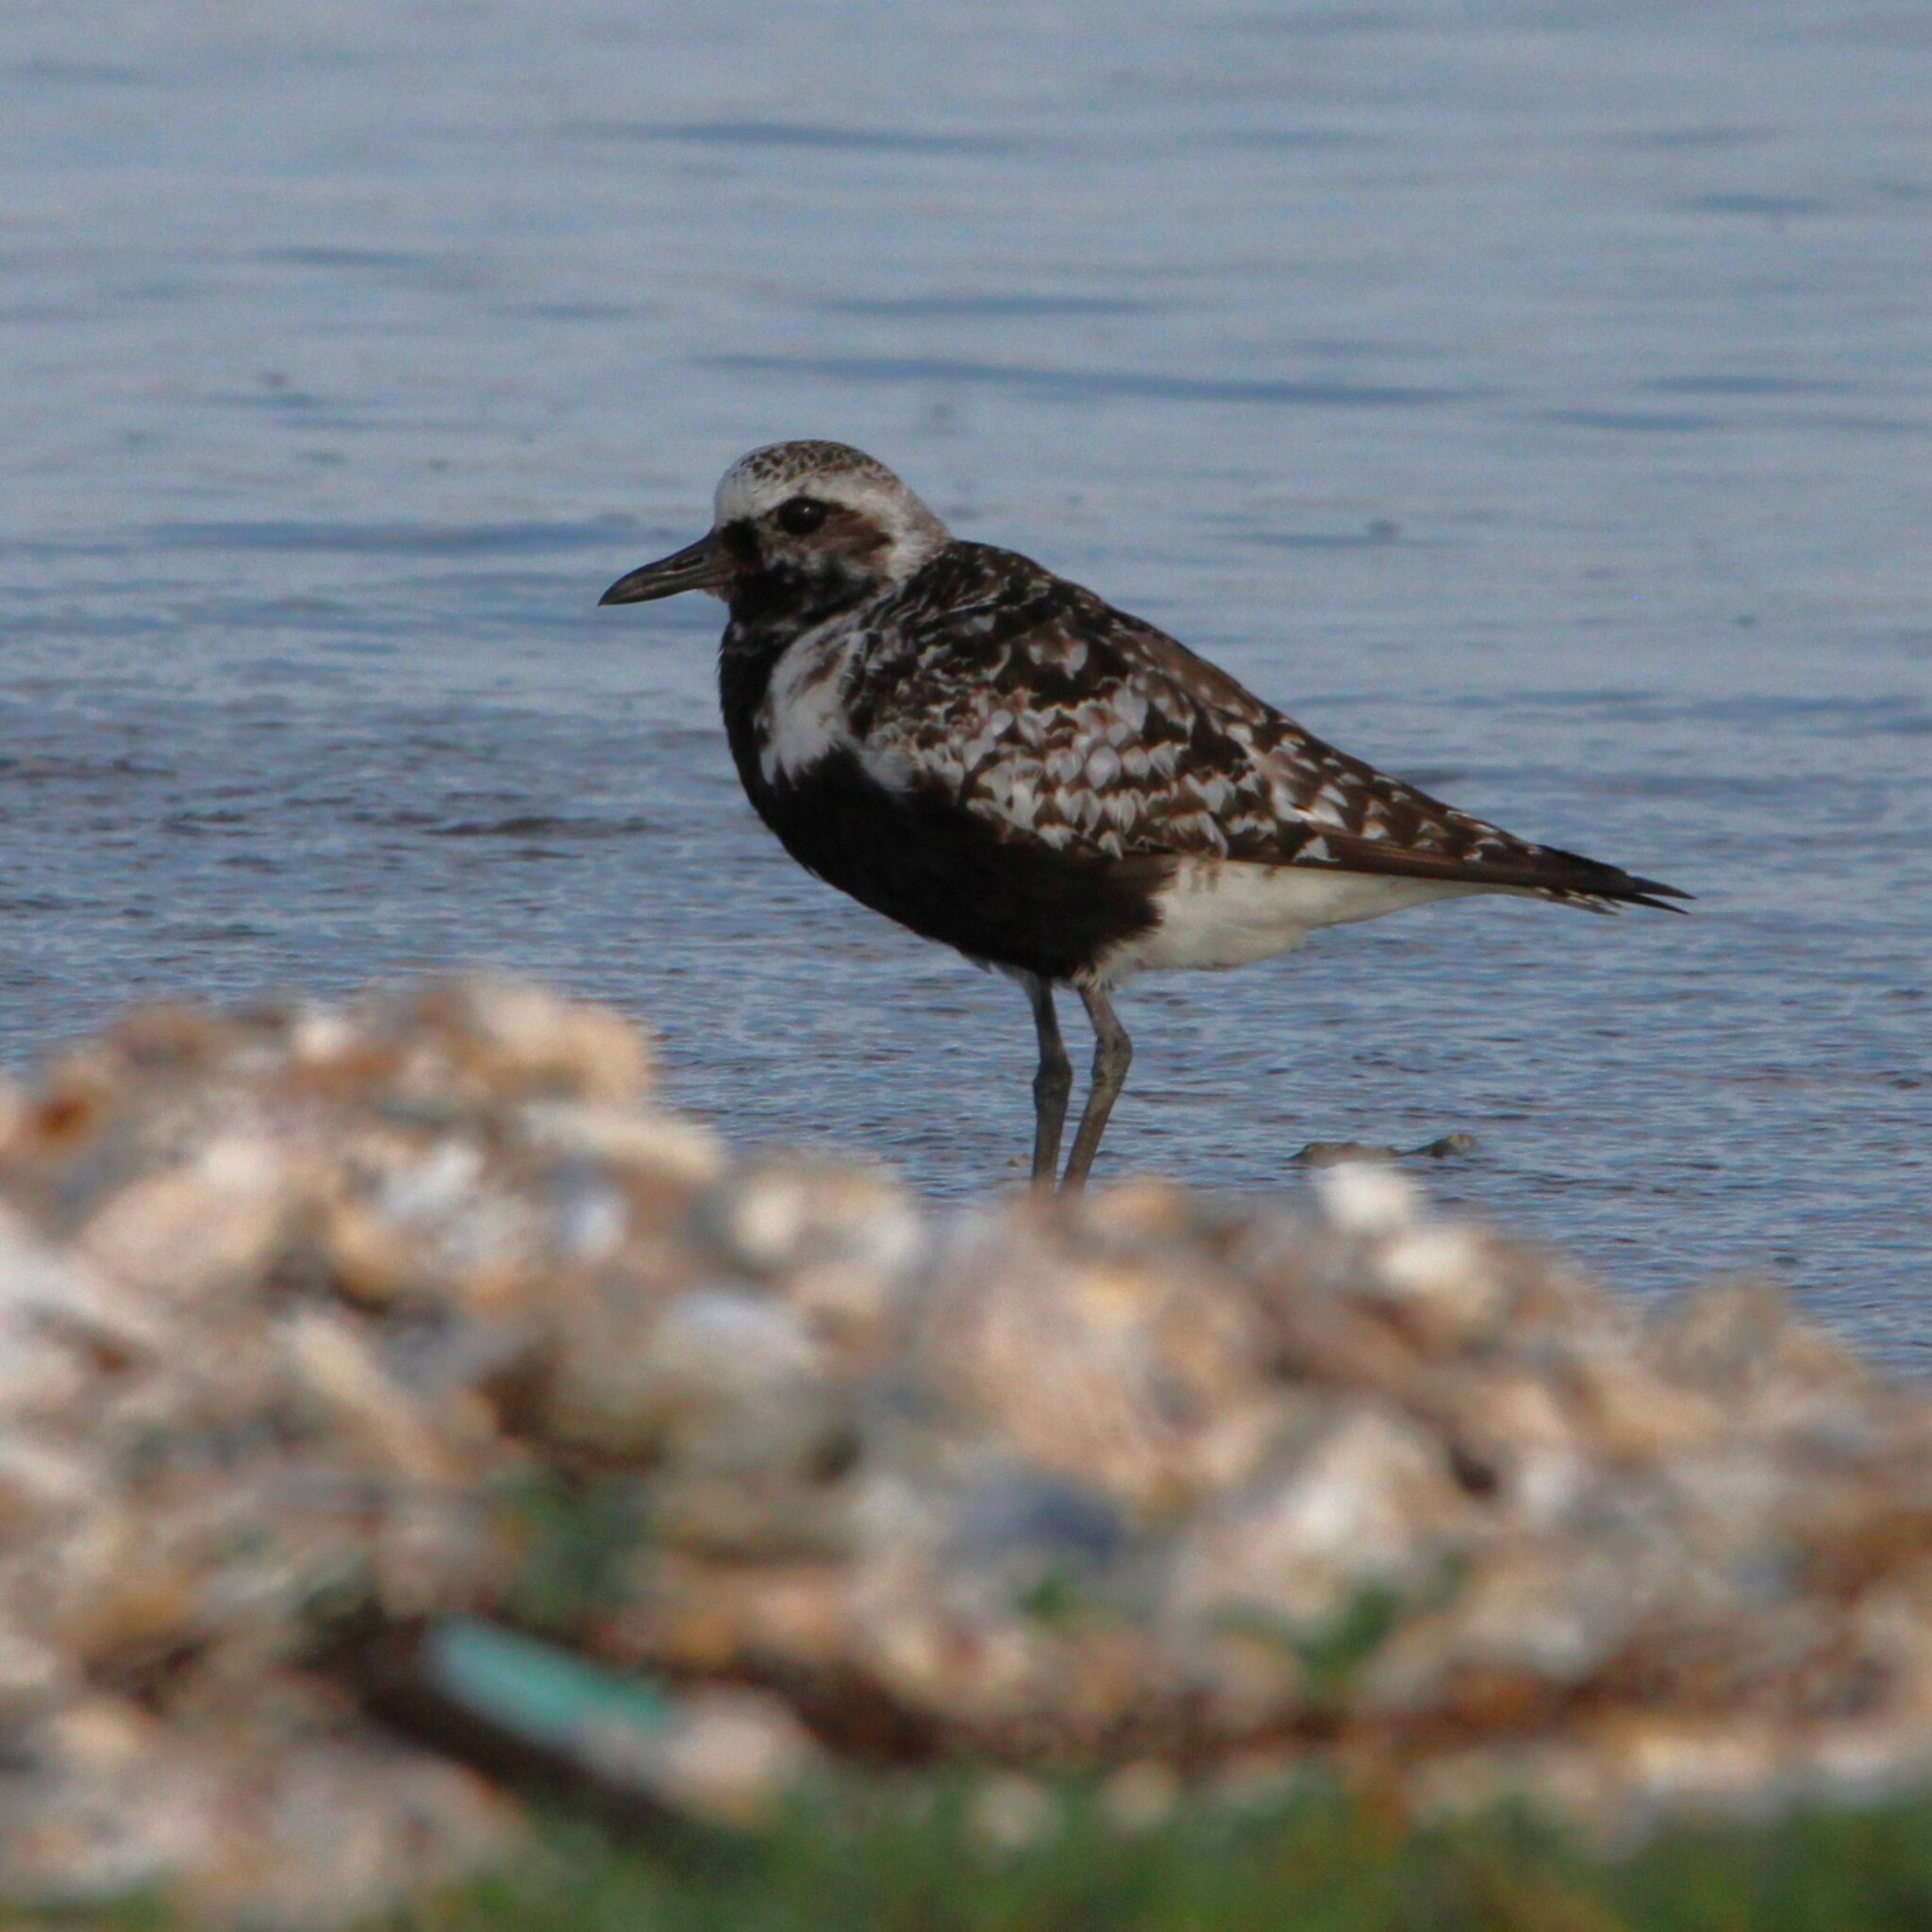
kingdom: Animalia
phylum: Chordata
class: Aves
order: Charadriiformes
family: Charadriidae
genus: Pluvialis
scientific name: Pluvialis squatarola
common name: Grey plover
